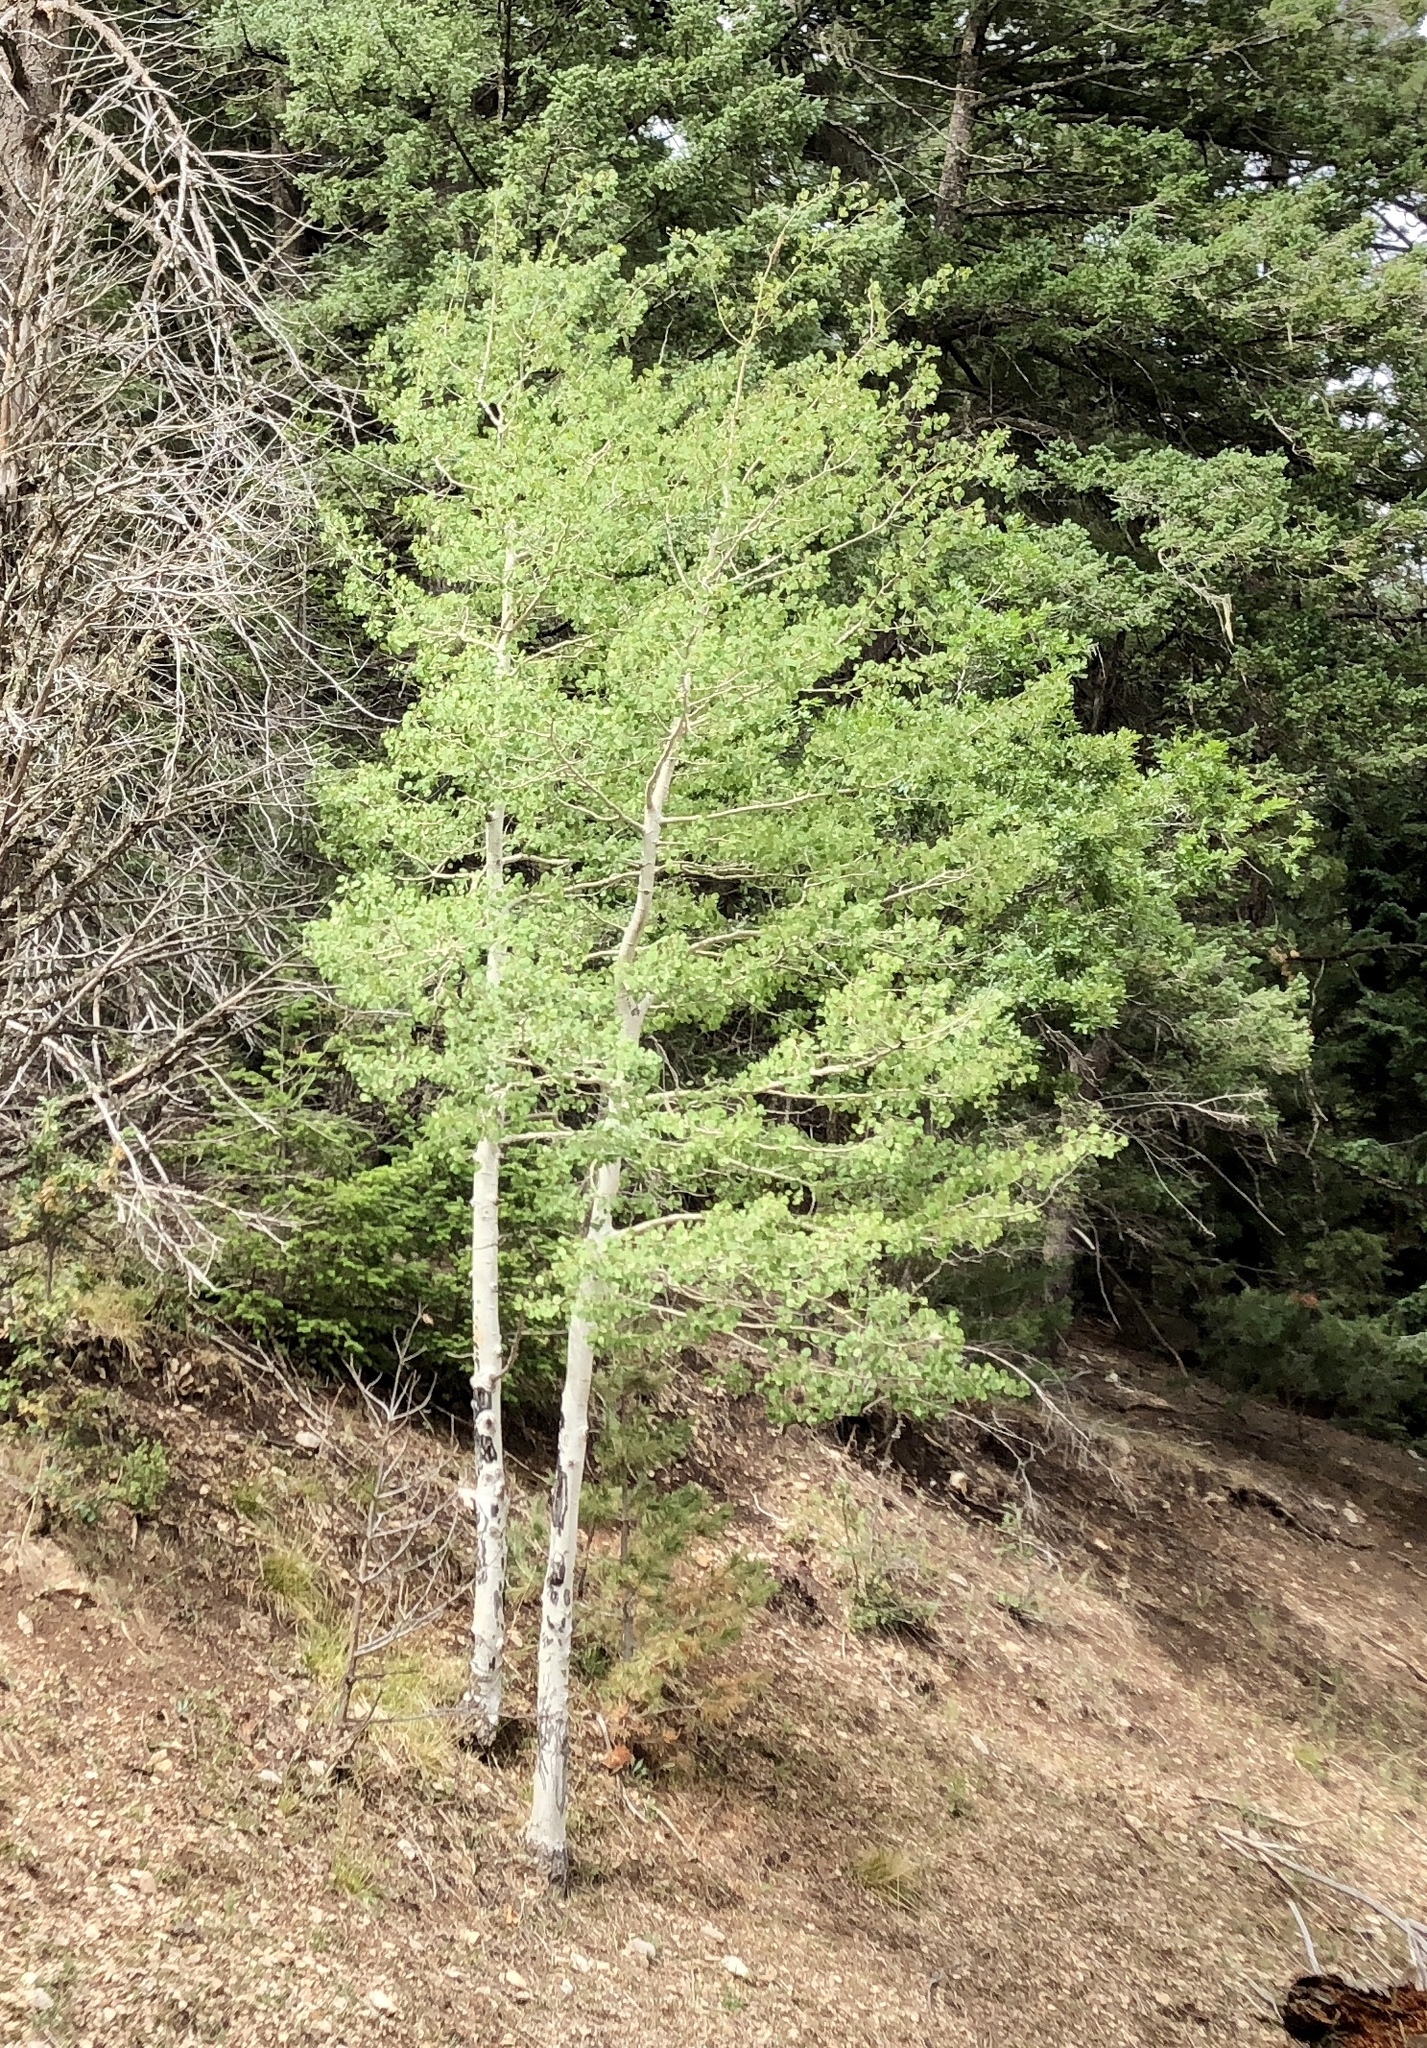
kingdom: Plantae
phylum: Tracheophyta
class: Magnoliopsida
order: Malpighiales
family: Salicaceae
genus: Populus
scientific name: Populus tremuloides
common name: Quaking aspen
